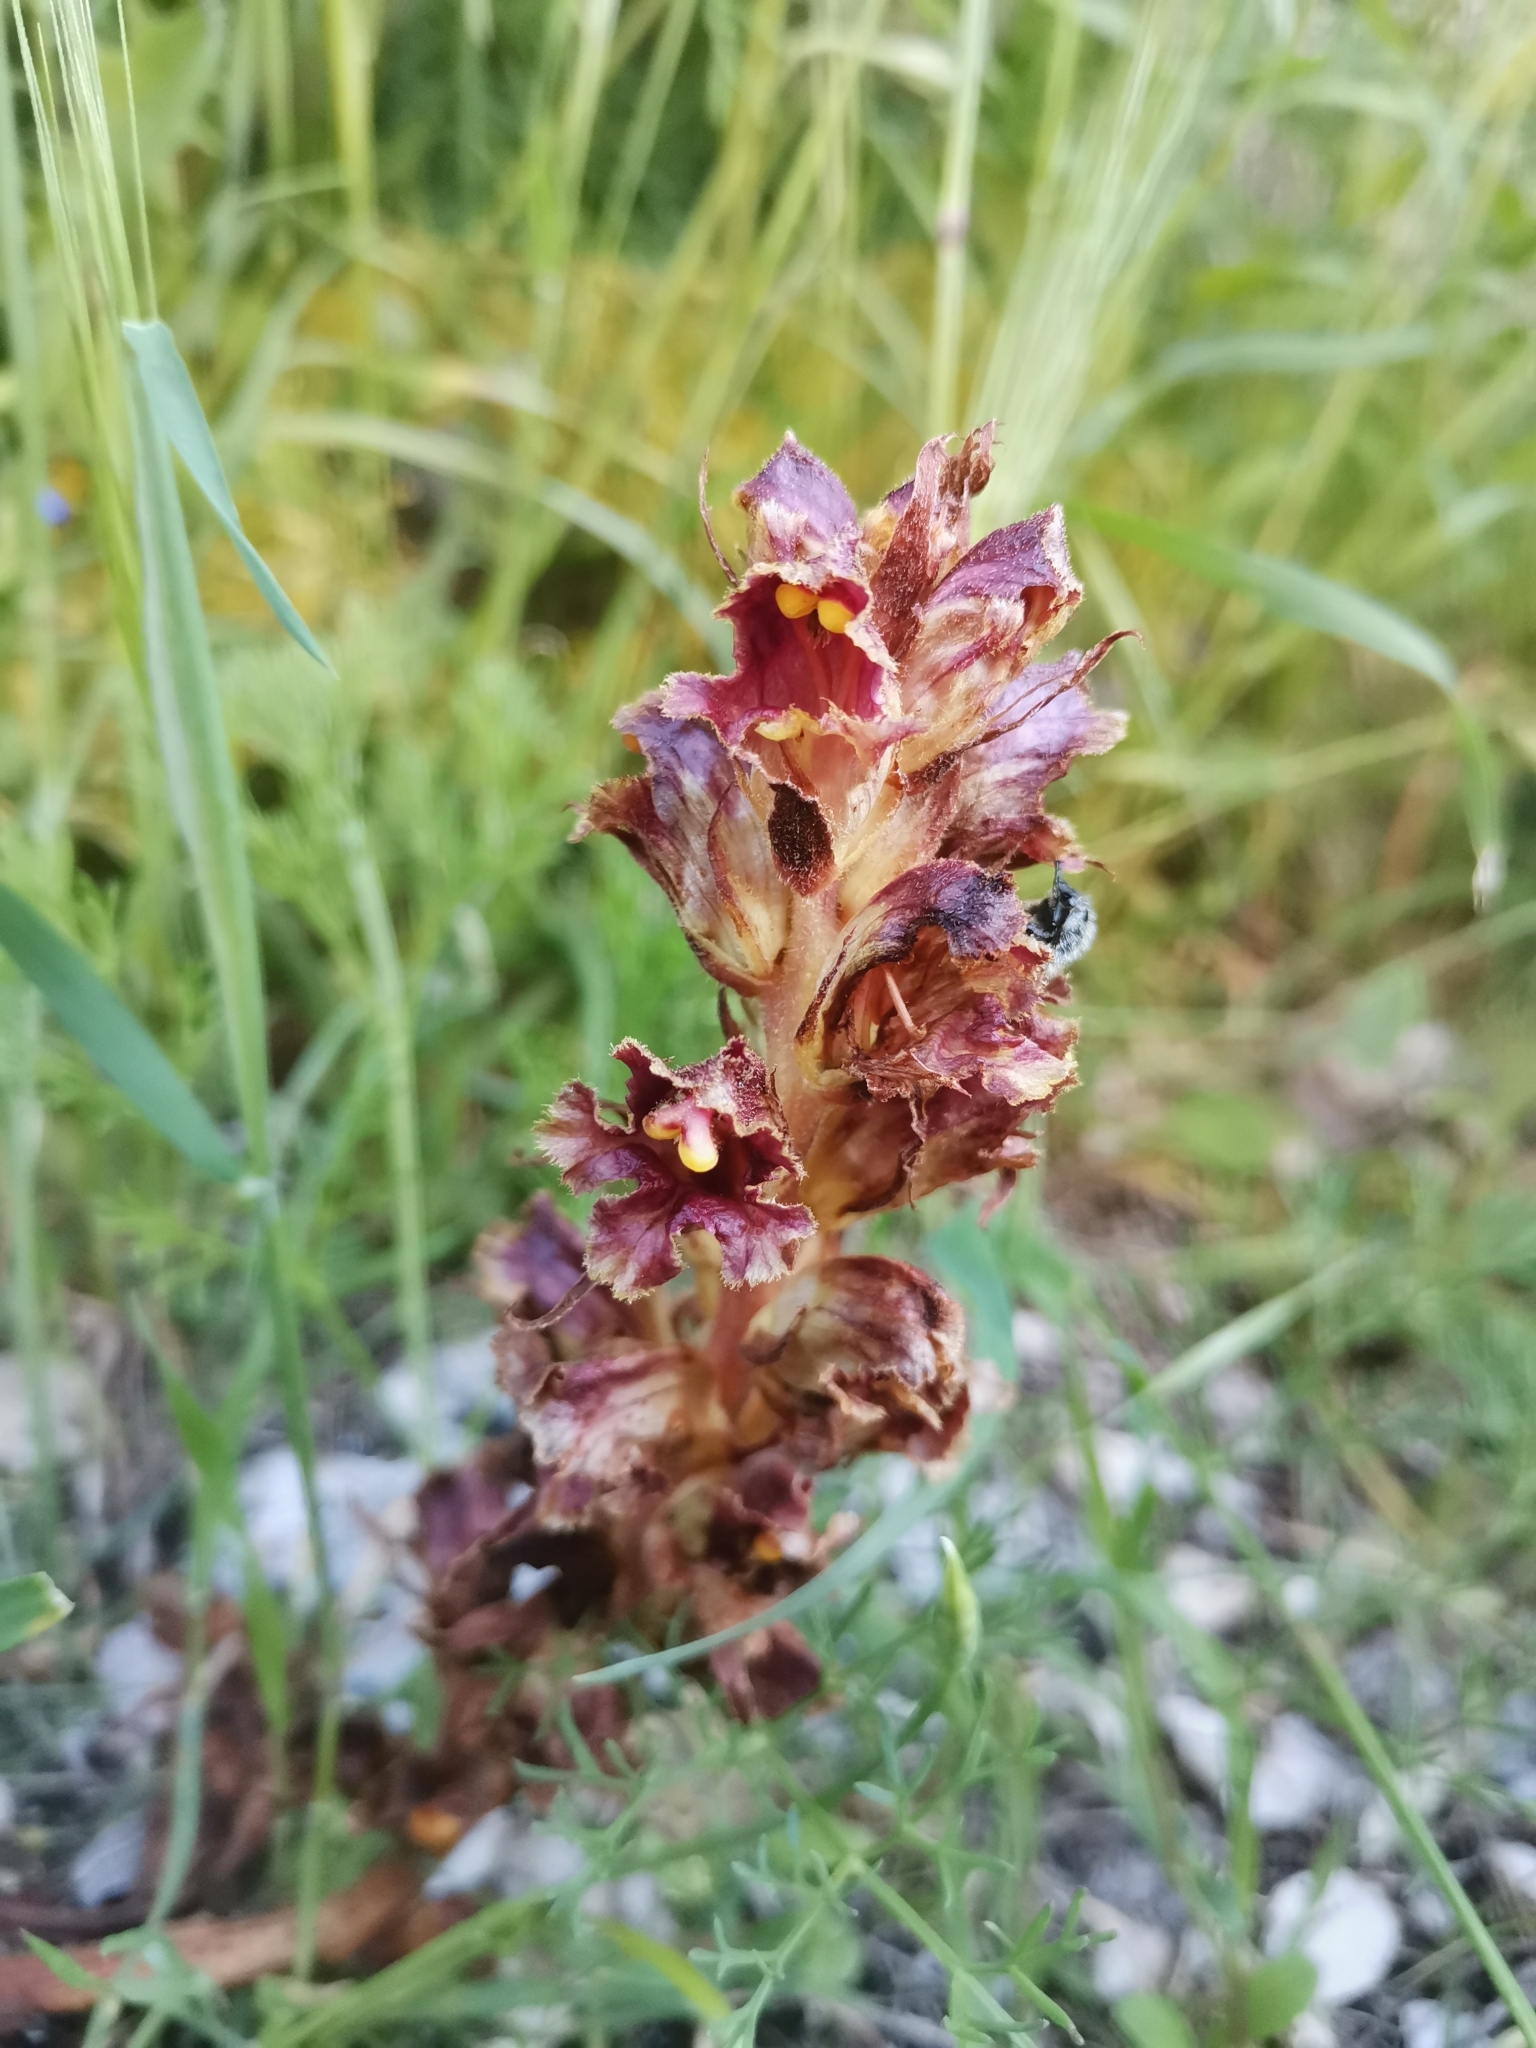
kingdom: Plantae
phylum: Tracheophyta
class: Magnoliopsida
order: Lamiales
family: Orobanchaceae
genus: Orobanche
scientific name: Orobanche gracilis
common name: Slender broomrape
